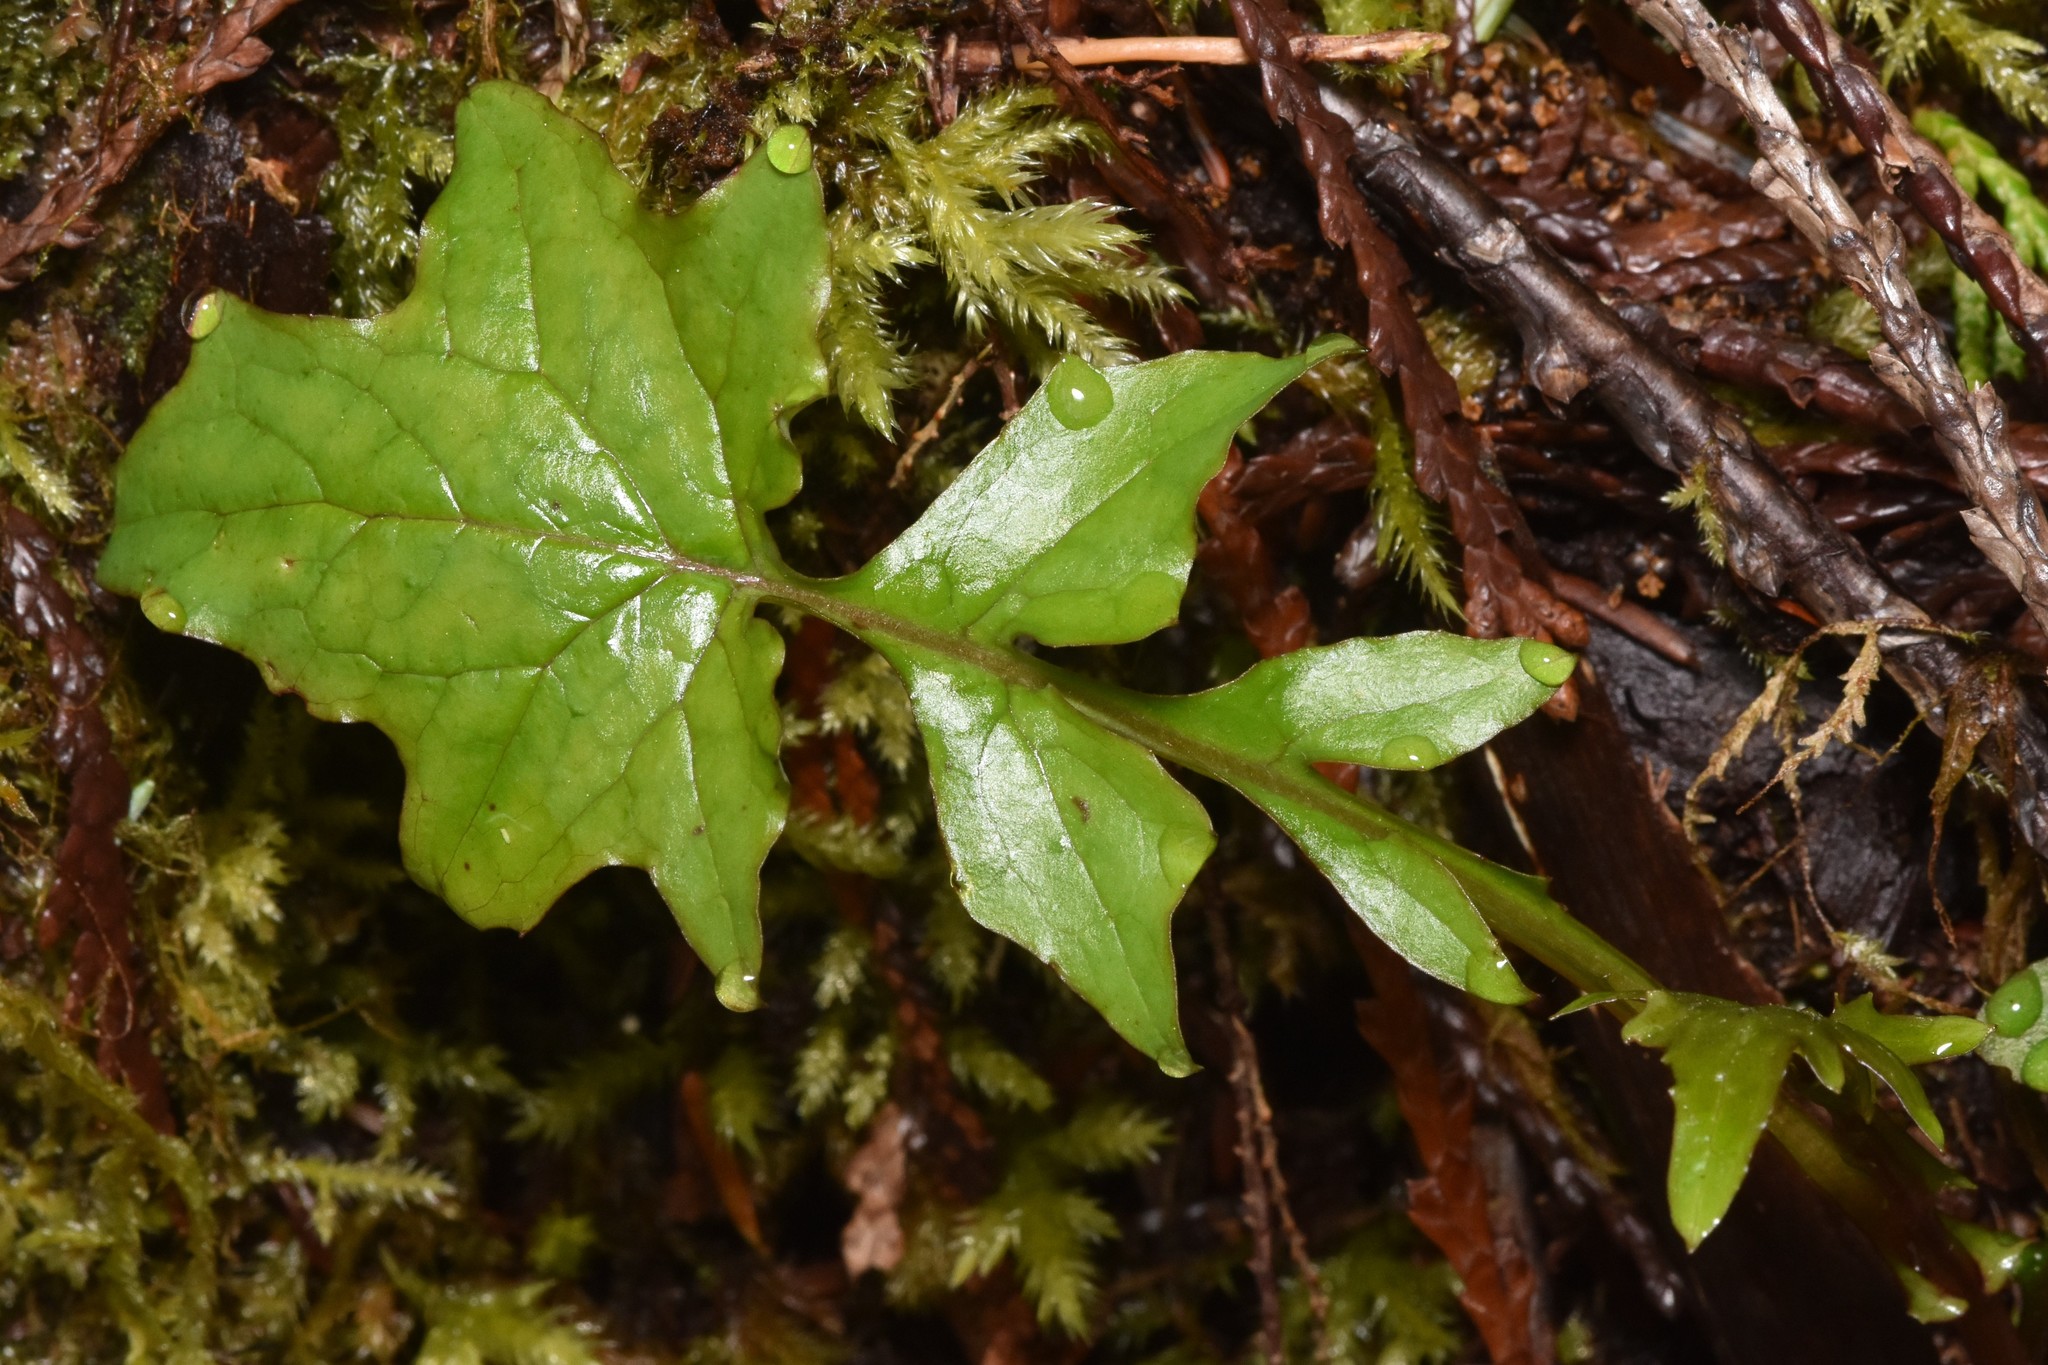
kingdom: Plantae
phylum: Tracheophyta
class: Magnoliopsida
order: Asterales
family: Asteraceae
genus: Mycelis
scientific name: Mycelis muralis
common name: Wall lettuce
